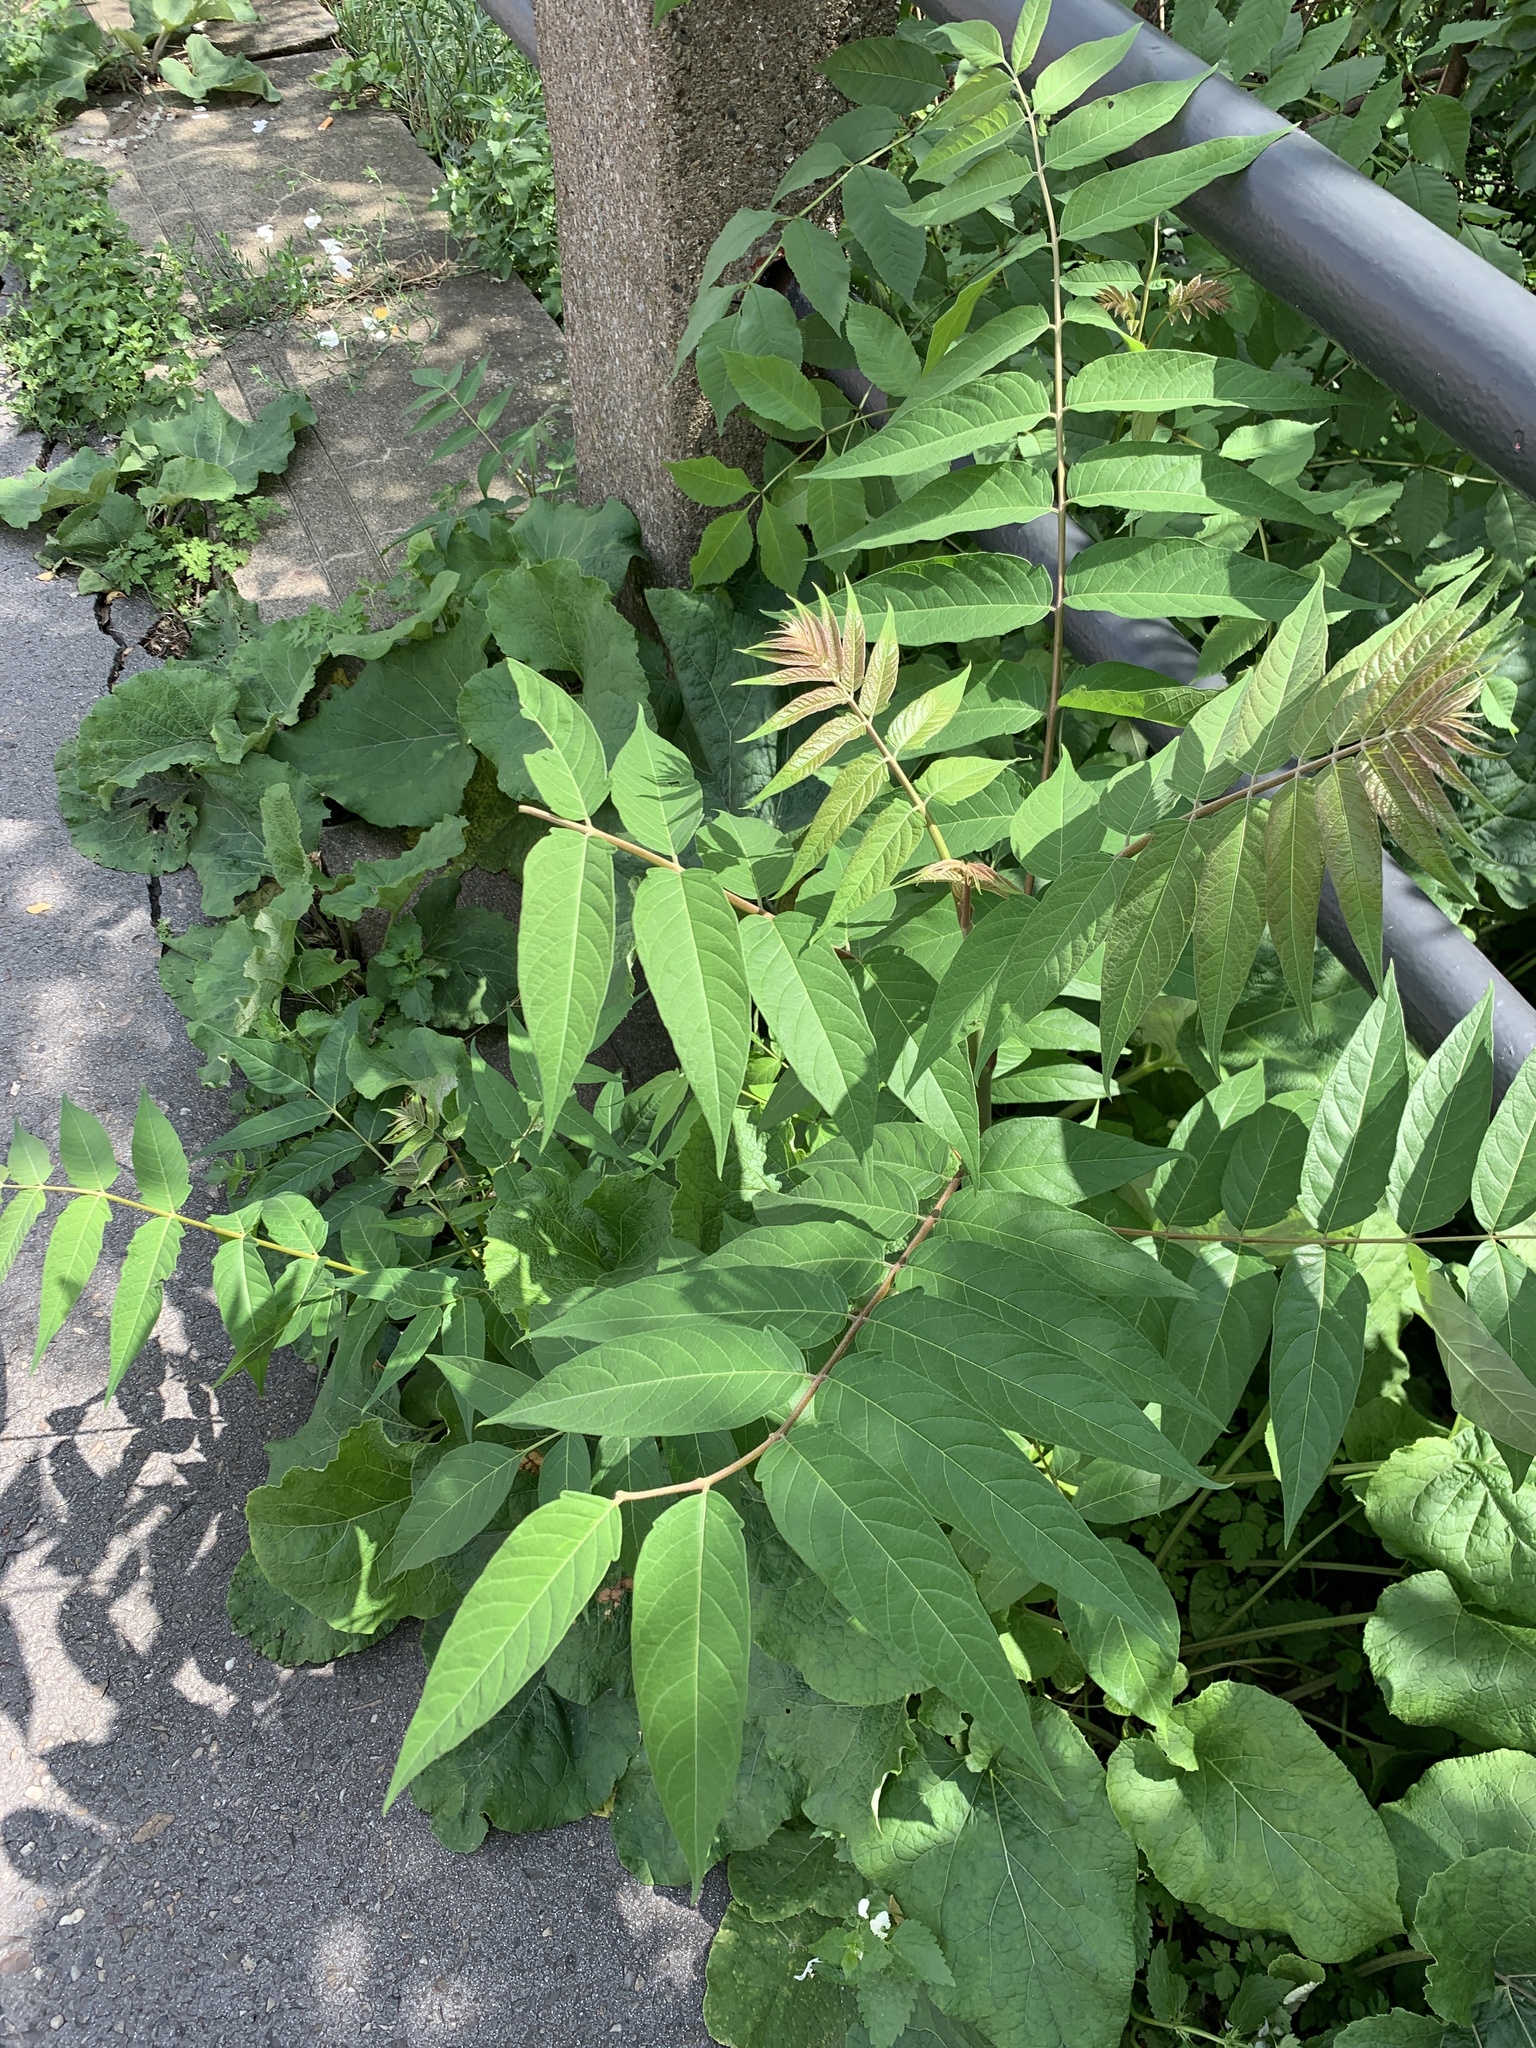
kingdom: Plantae
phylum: Tracheophyta
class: Magnoliopsida
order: Sapindales
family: Simaroubaceae
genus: Ailanthus
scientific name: Ailanthus altissima
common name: Tree-of-heaven
